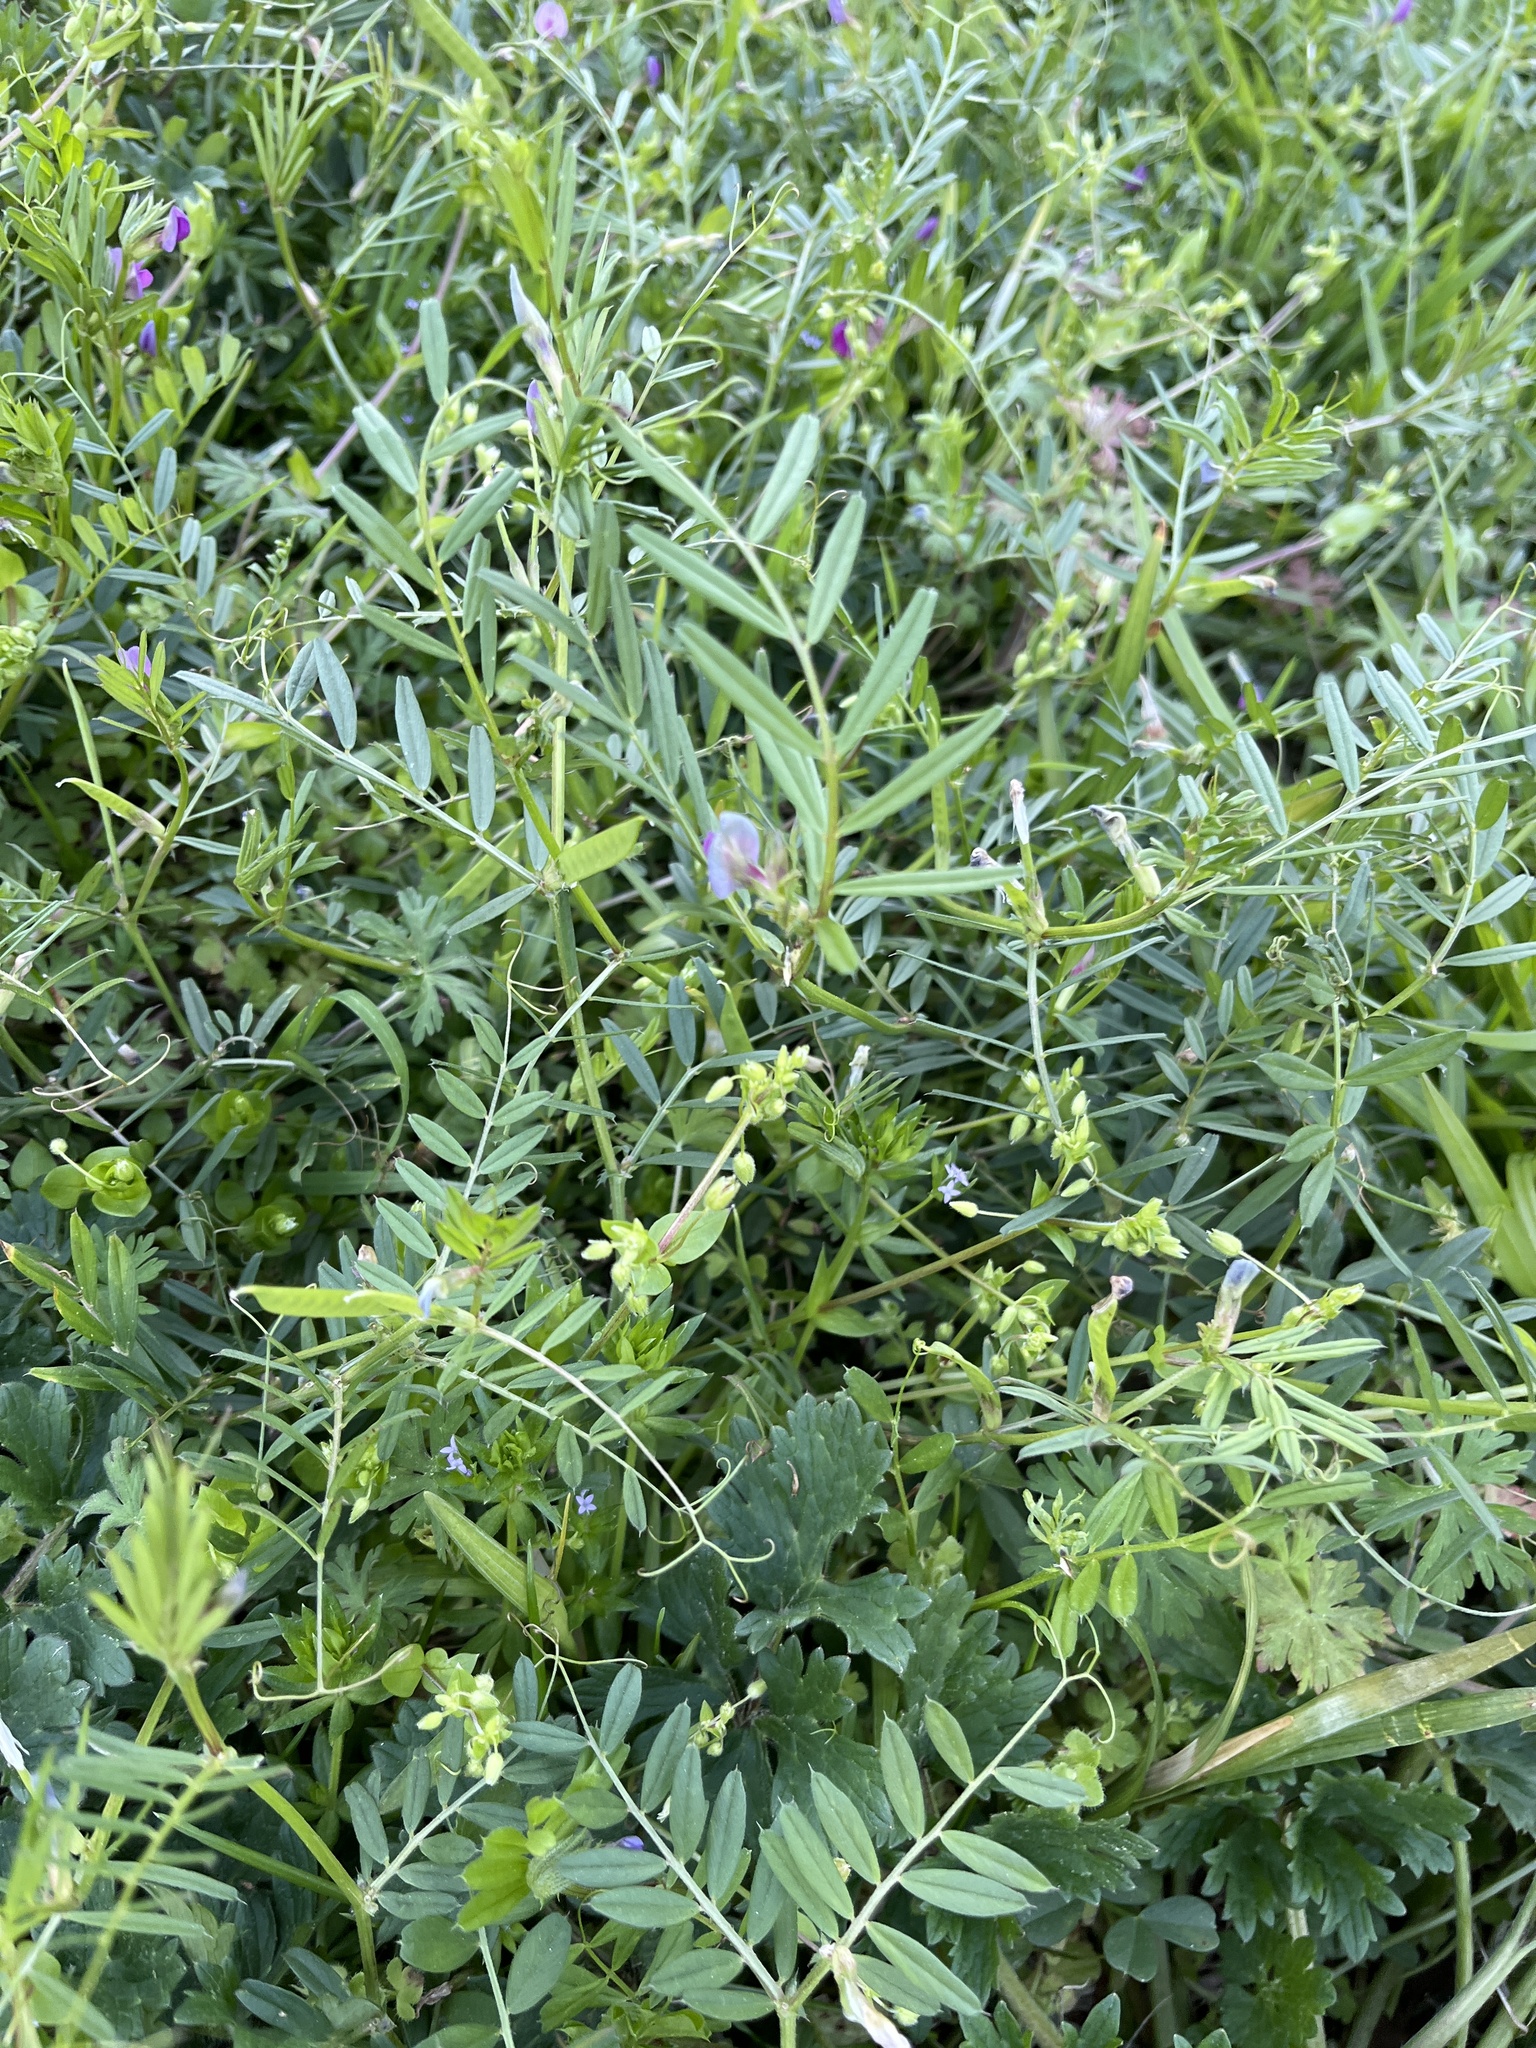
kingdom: Plantae
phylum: Tracheophyta
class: Magnoliopsida
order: Fabales
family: Fabaceae
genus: Vicia
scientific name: Vicia sativa
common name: Garden vetch
